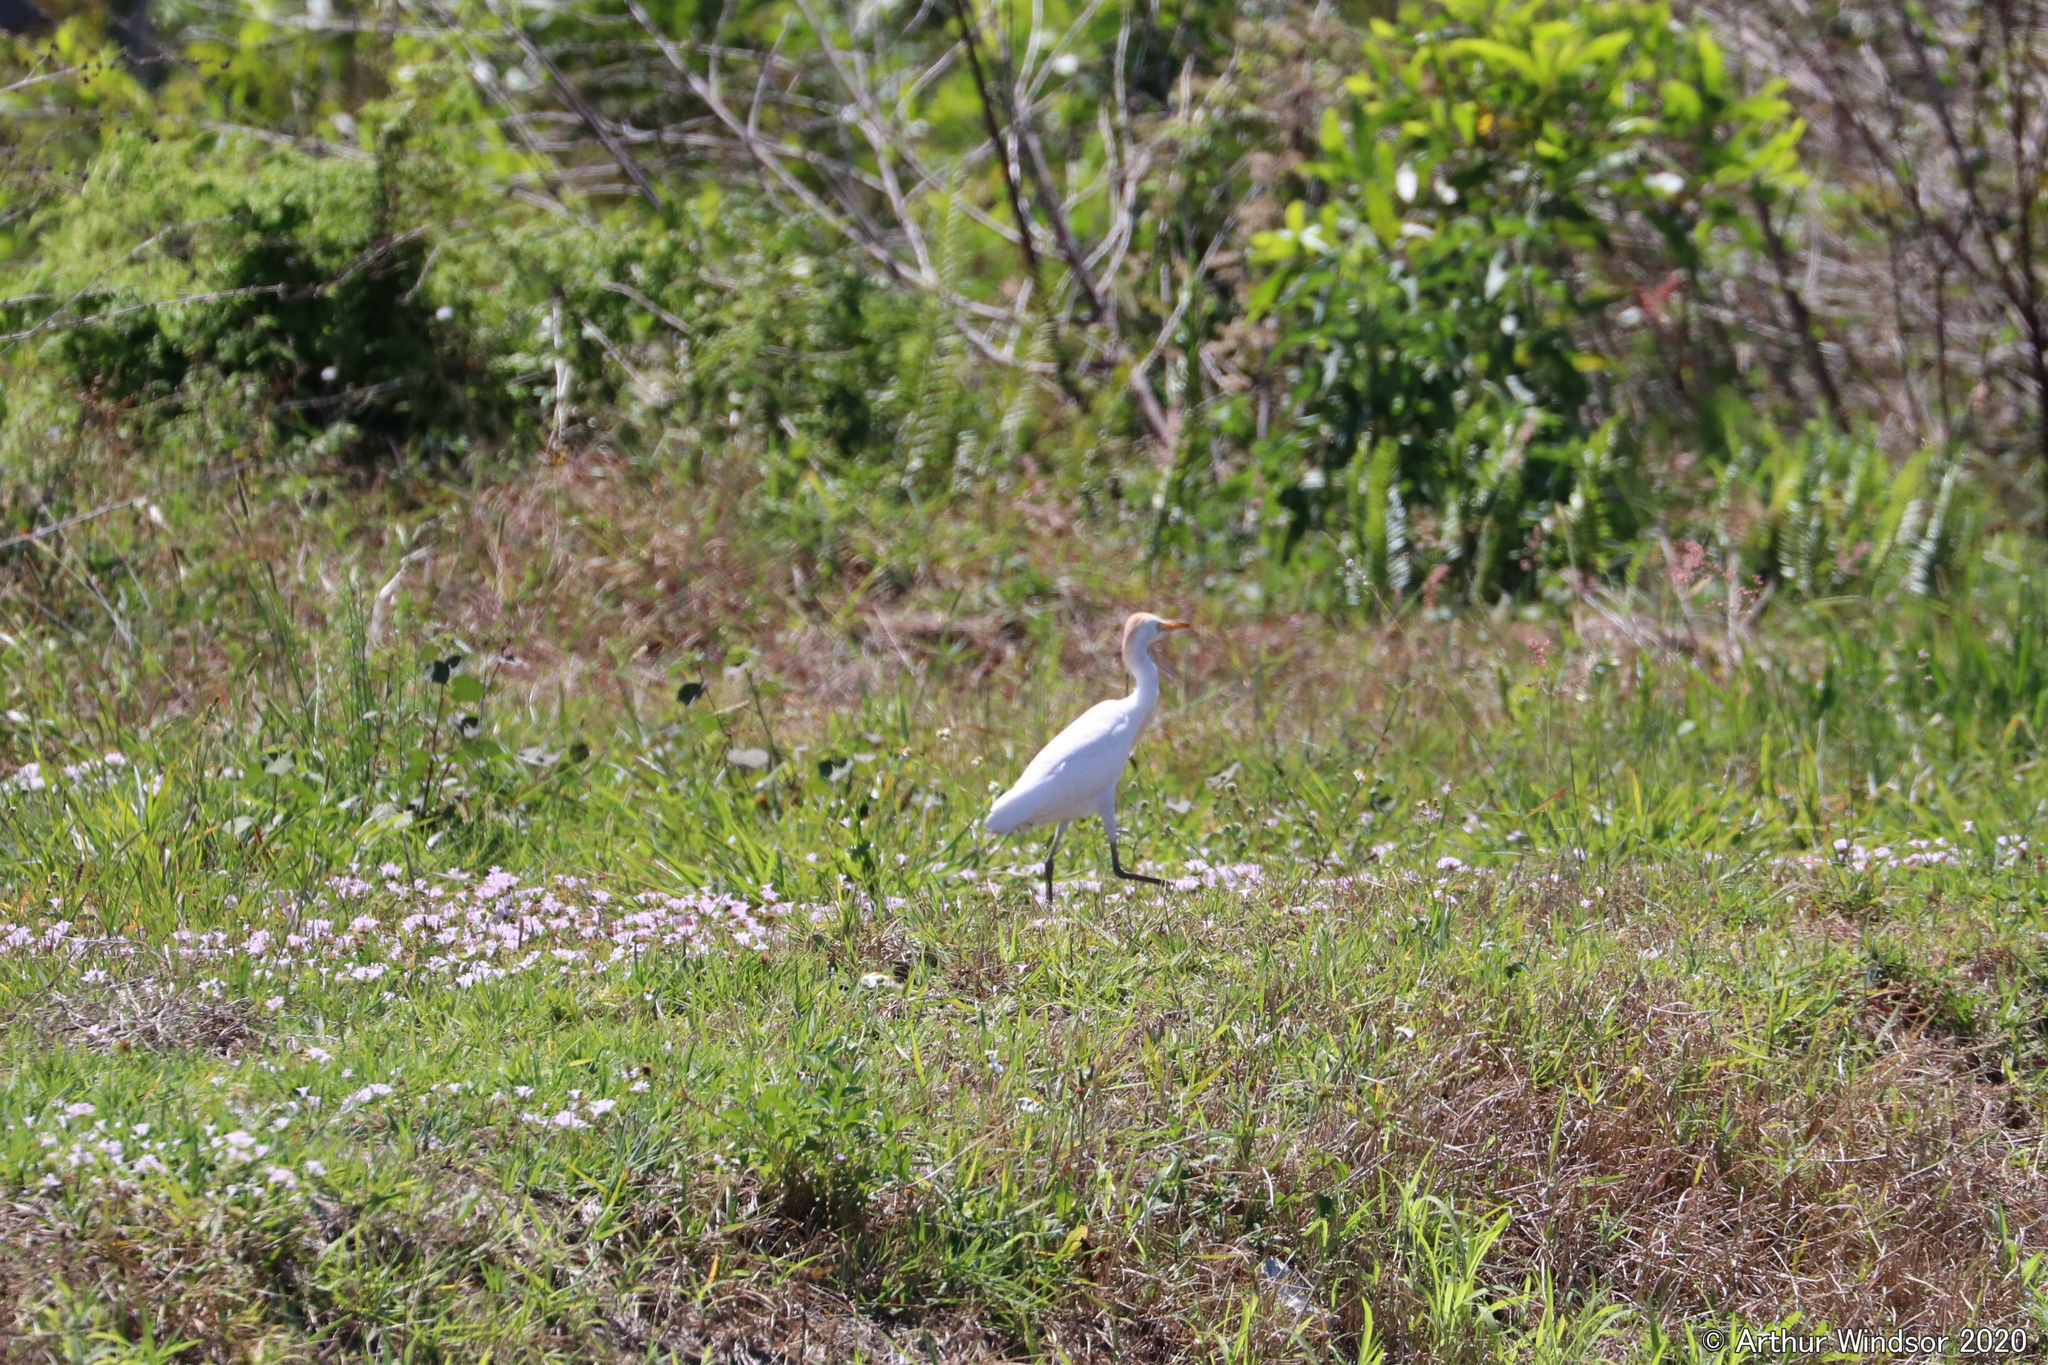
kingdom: Animalia
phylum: Chordata
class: Aves
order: Pelecaniformes
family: Ardeidae
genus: Bubulcus
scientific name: Bubulcus ibis
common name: Cattle egret
